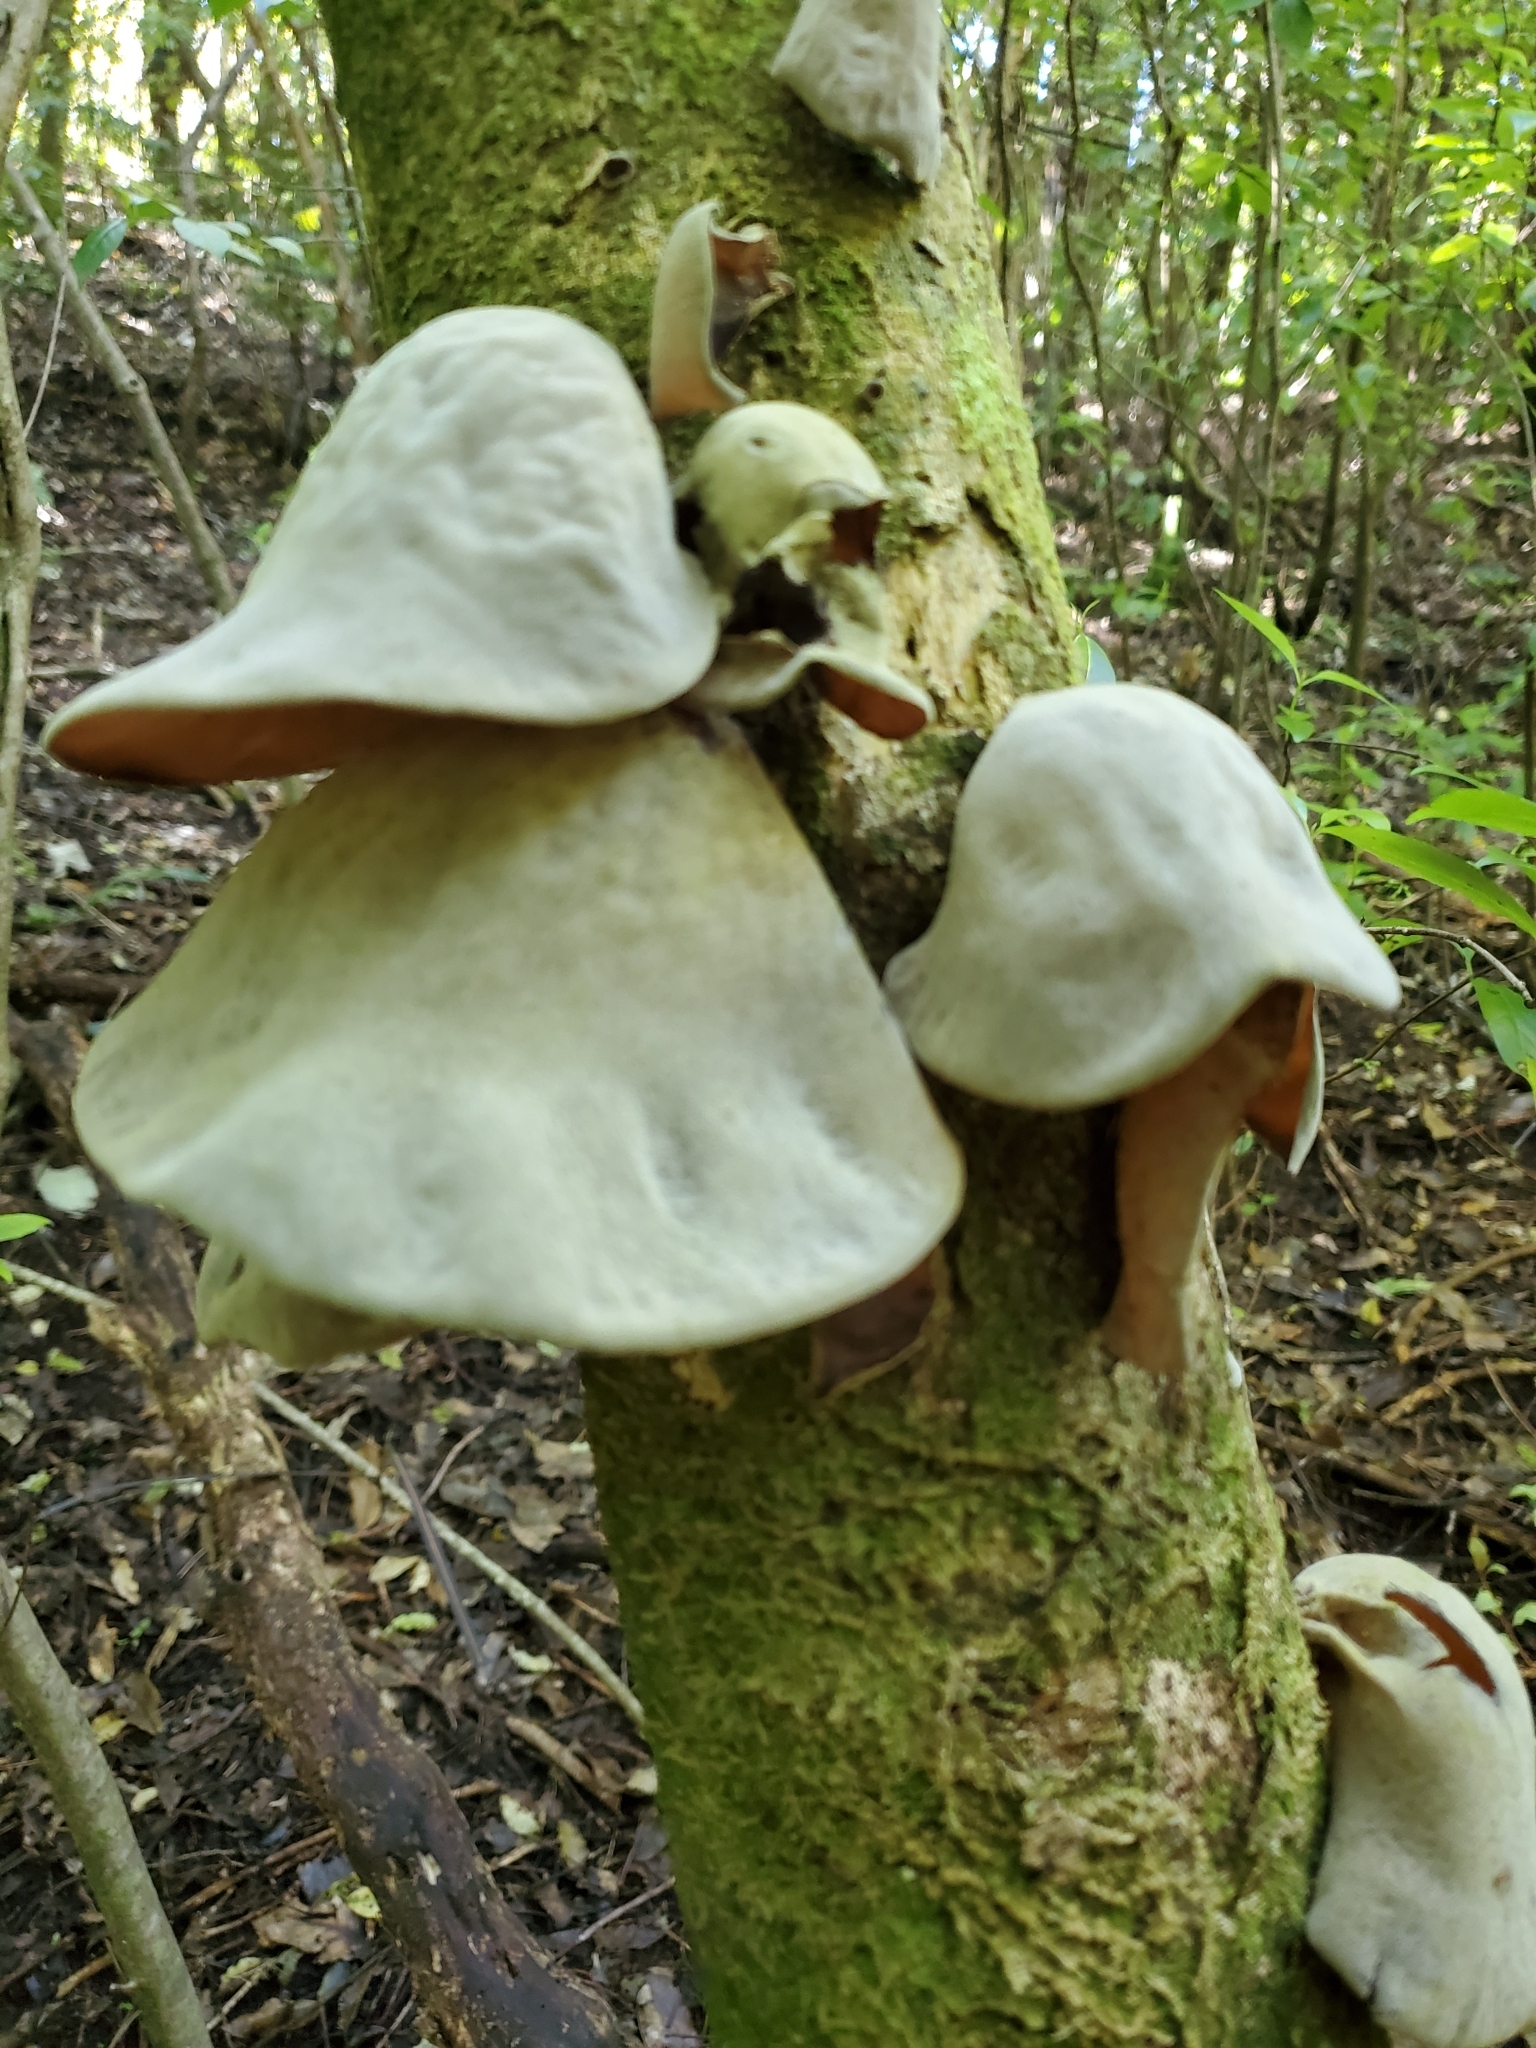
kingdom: Fungi
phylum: Basidiomycota
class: Agaricomycetes
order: Auriculariales
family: Auriculariaceae
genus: Auricularia
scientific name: Auricularia cornea
